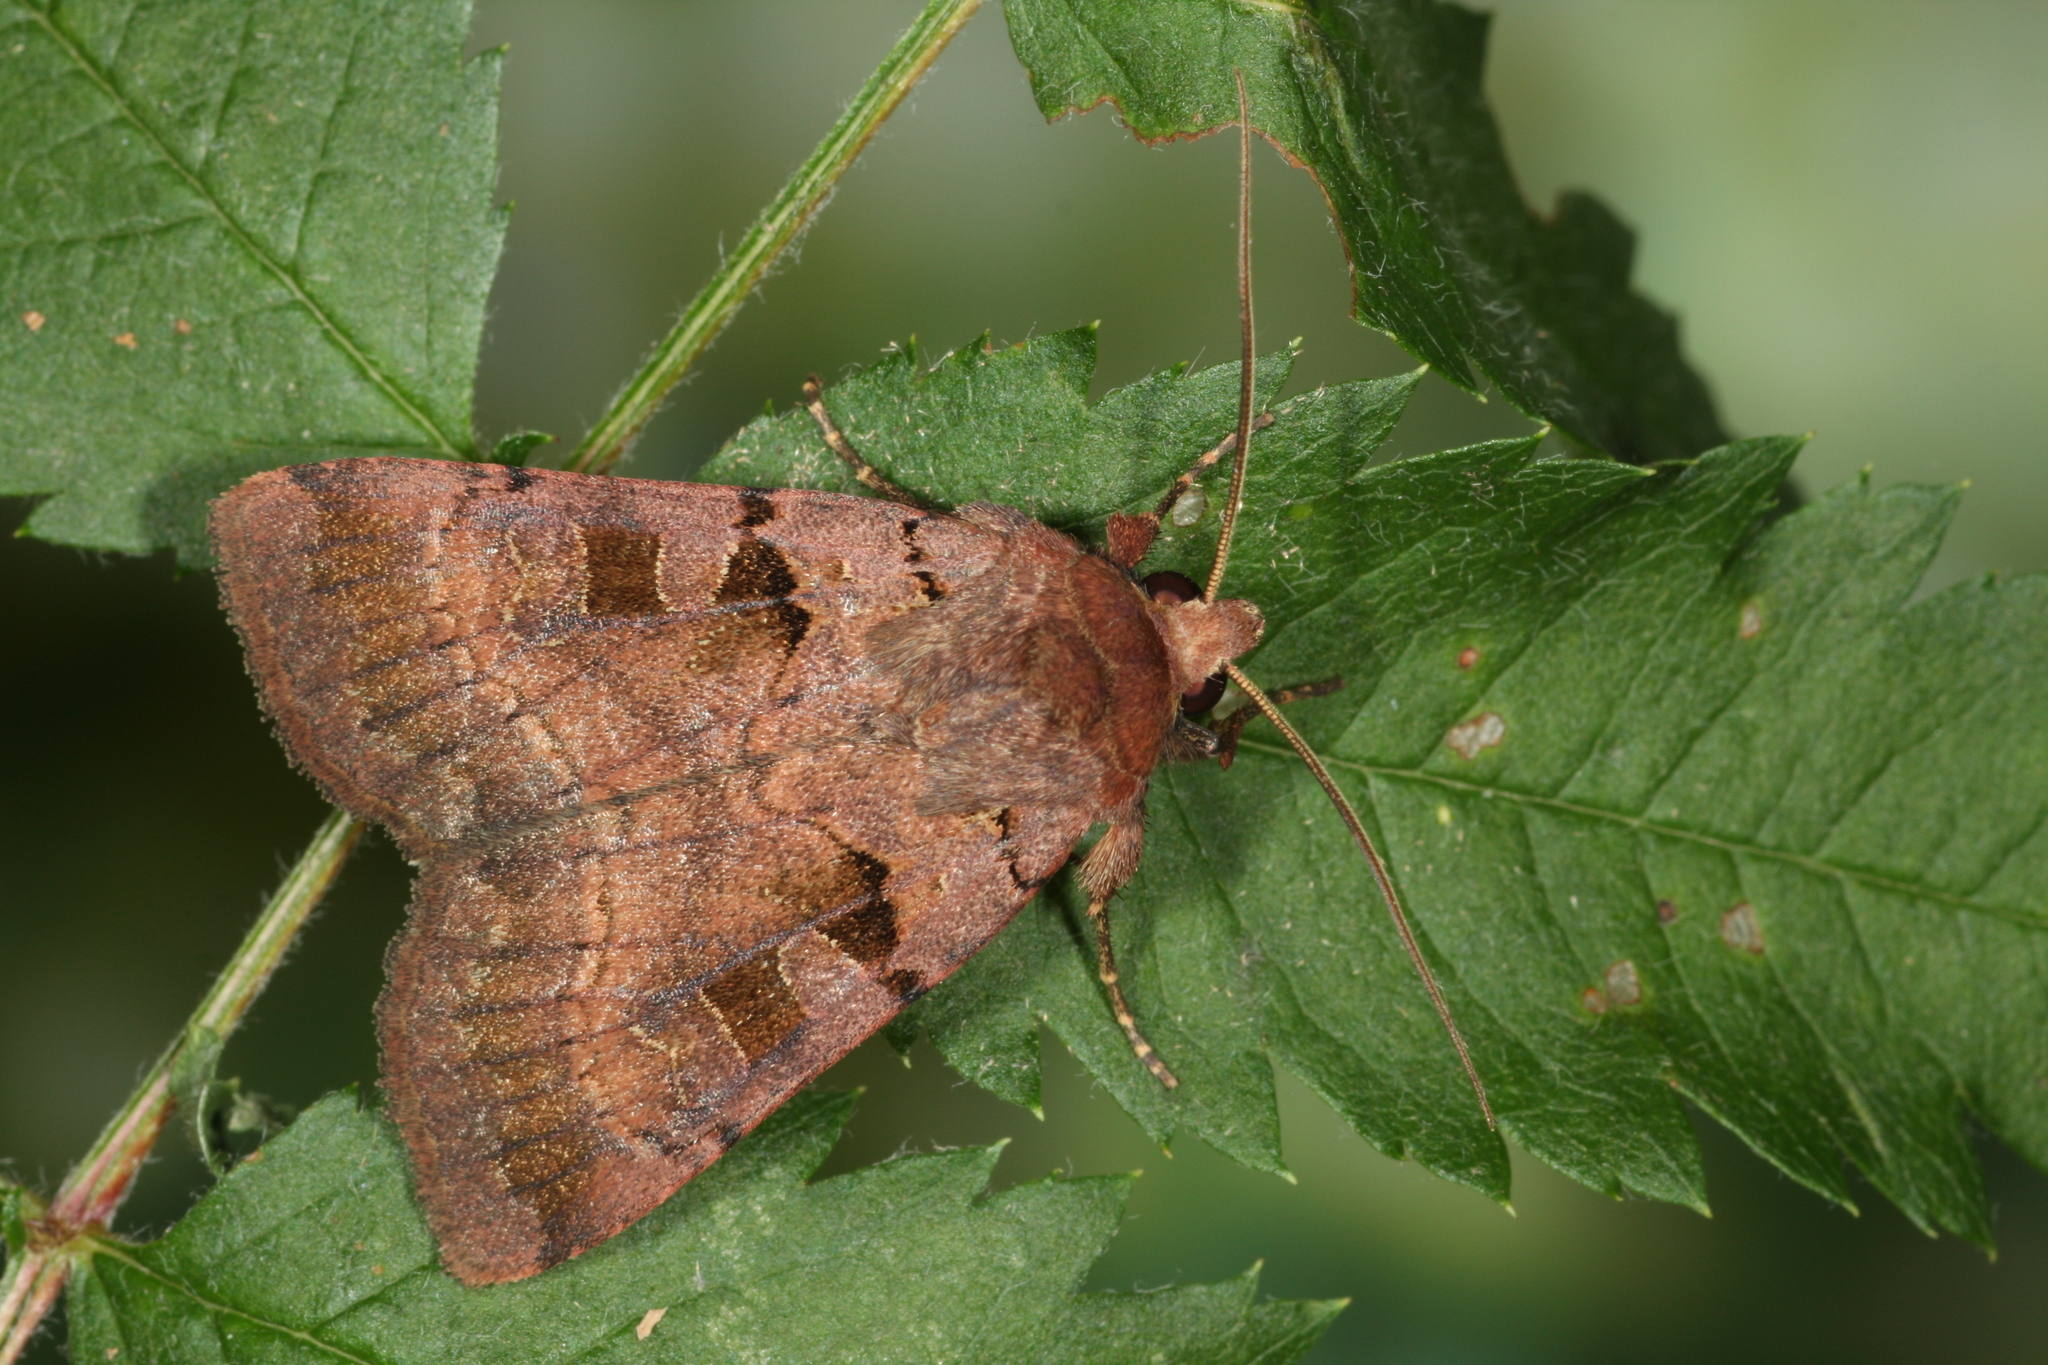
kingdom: Animalia
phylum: Arthropoda
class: Insecta
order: Lepidoptera
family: Noctuidae
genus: Xestia
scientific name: Xestia stigmatica
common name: Square-spotted clay
